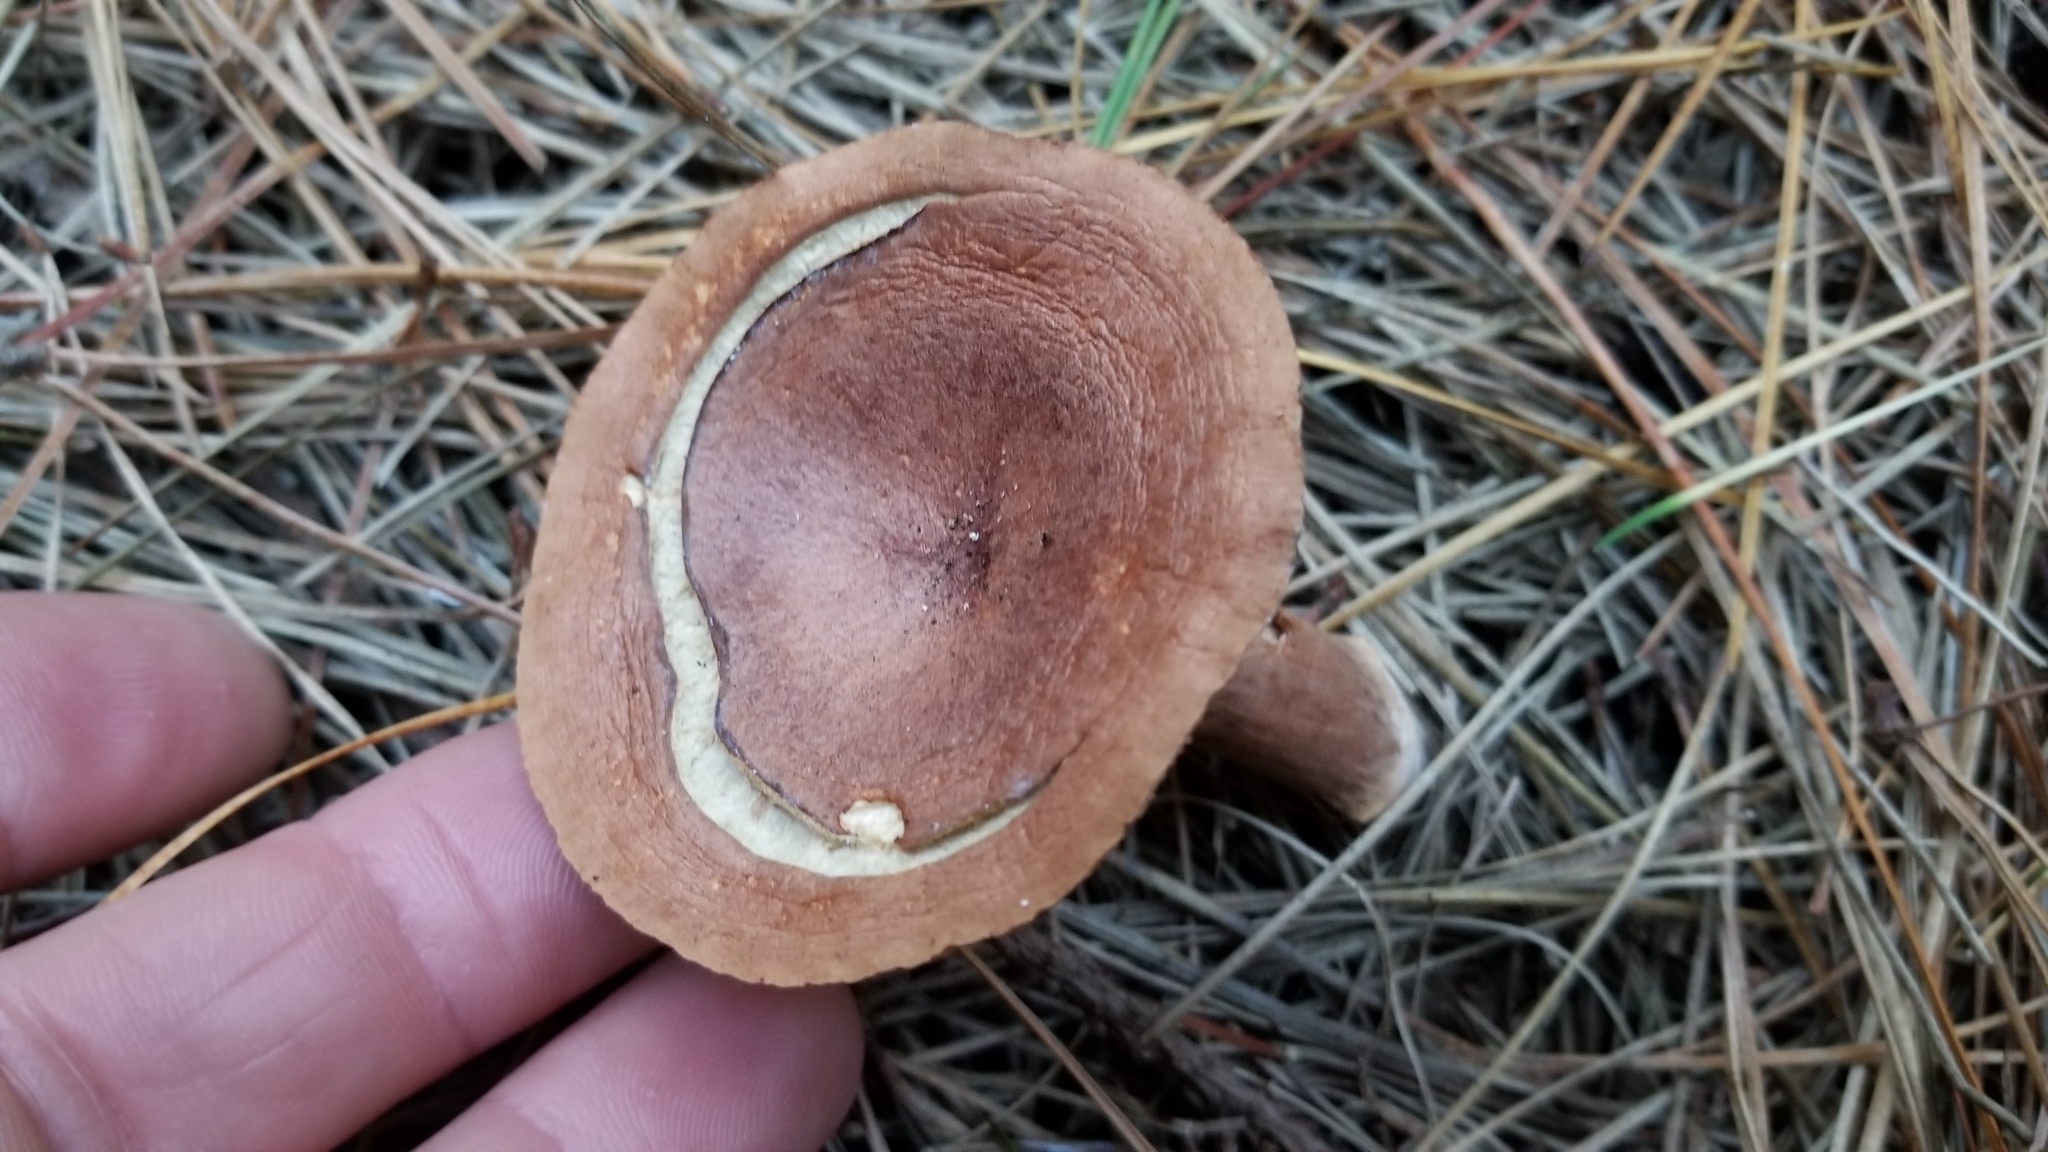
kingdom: Fungi
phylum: Basidiomycota
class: Agaricomycetes
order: Russulales
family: Russulaceae
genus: Lactarius
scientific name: Lactarius rufus
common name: Rufous milk-cap
